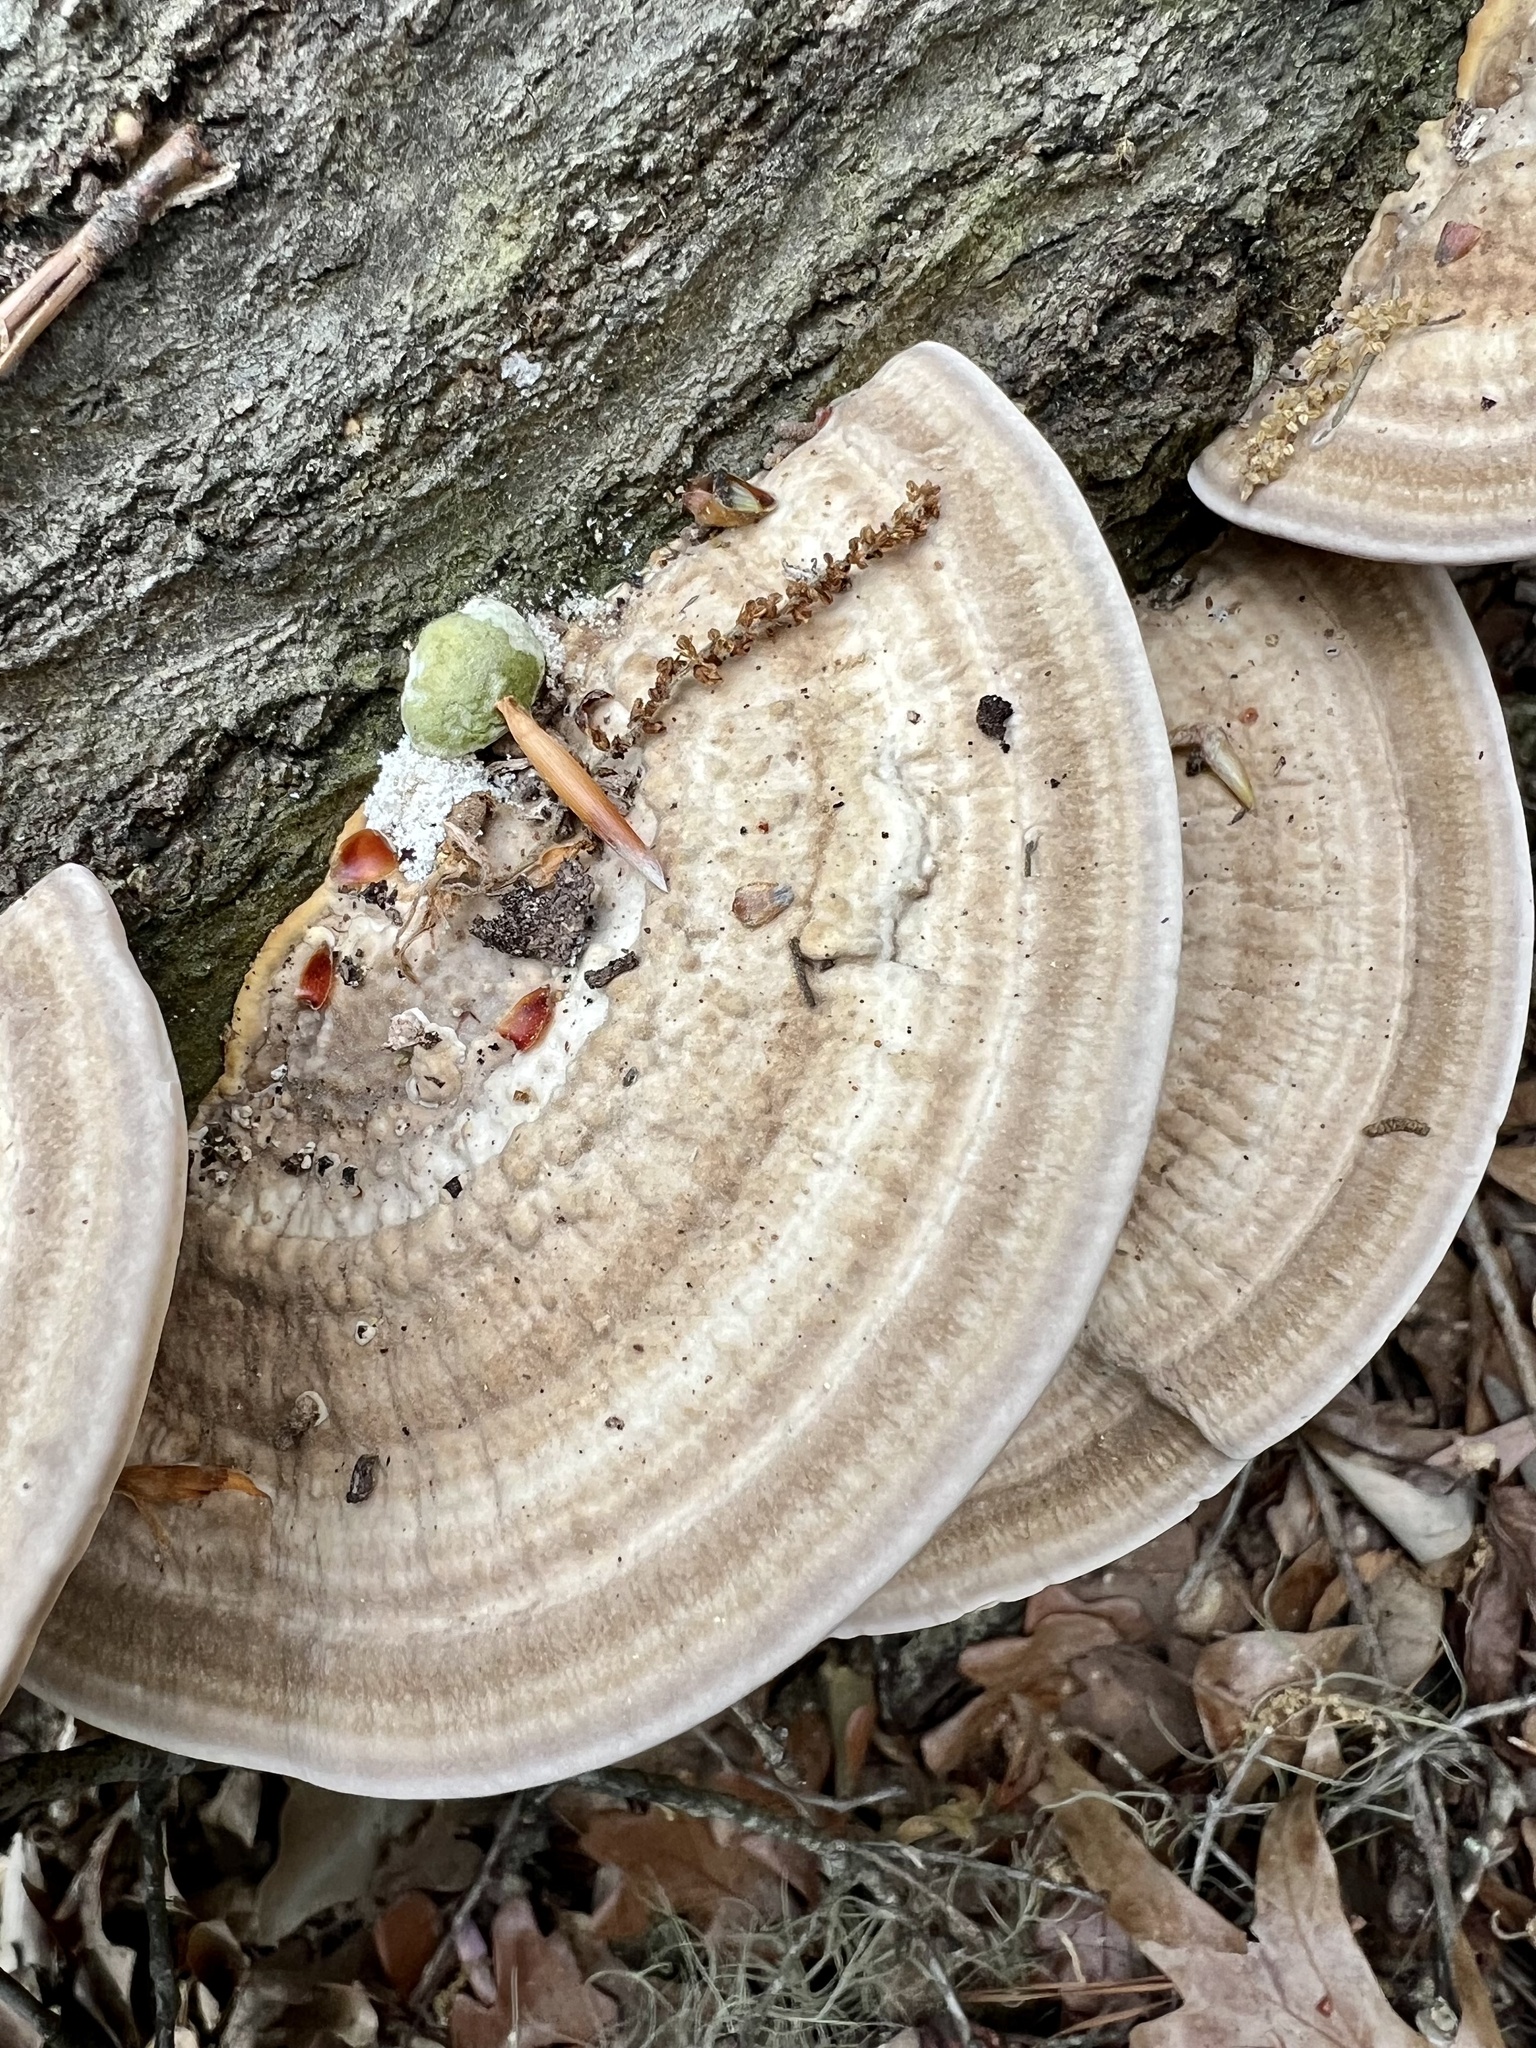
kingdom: Fungi
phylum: Basidiomycota
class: Agaricomycetes
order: Polyporales
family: Polyporaceae
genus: Trametes
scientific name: Trametes lactinea
